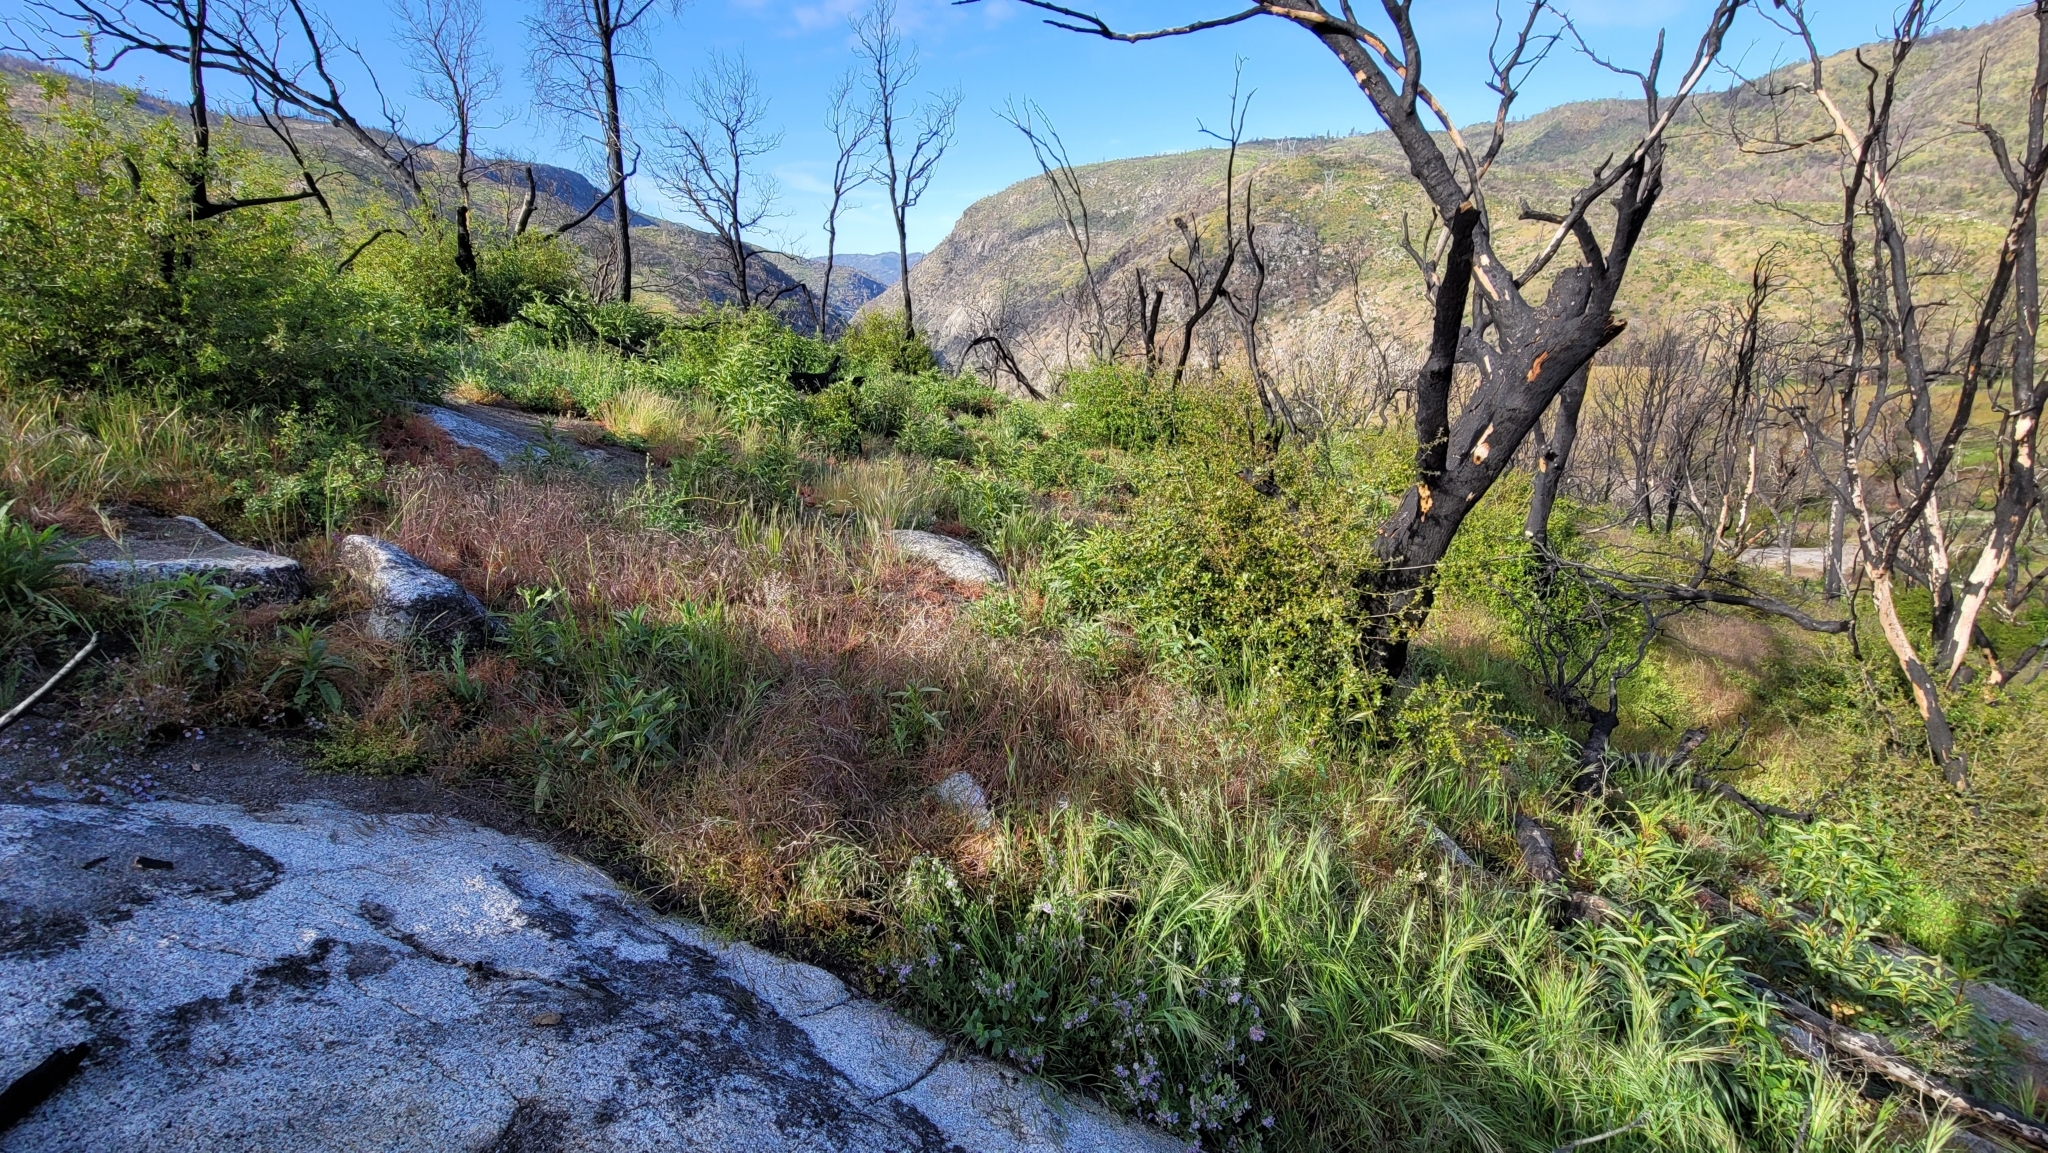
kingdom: Plantae
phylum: Tracheophyta
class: Magnoliopsida
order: Fabales
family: Fabaceae
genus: Astragalus
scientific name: Astragalus congdonii
